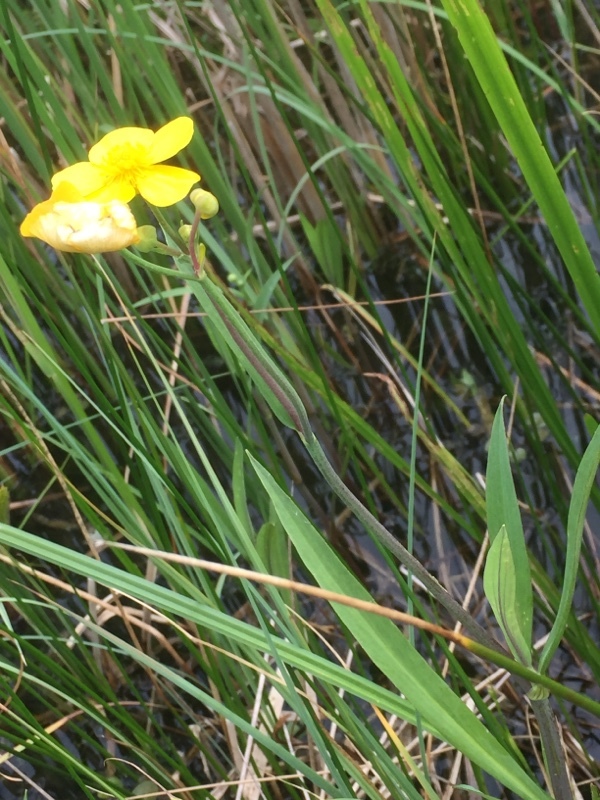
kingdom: Plantae
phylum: Tracheophyta
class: Magnoliopsida
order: Ranunculales
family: Ranunculaceae
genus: Ranunculus
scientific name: Ranunculus lingua
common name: Greater spearwort
